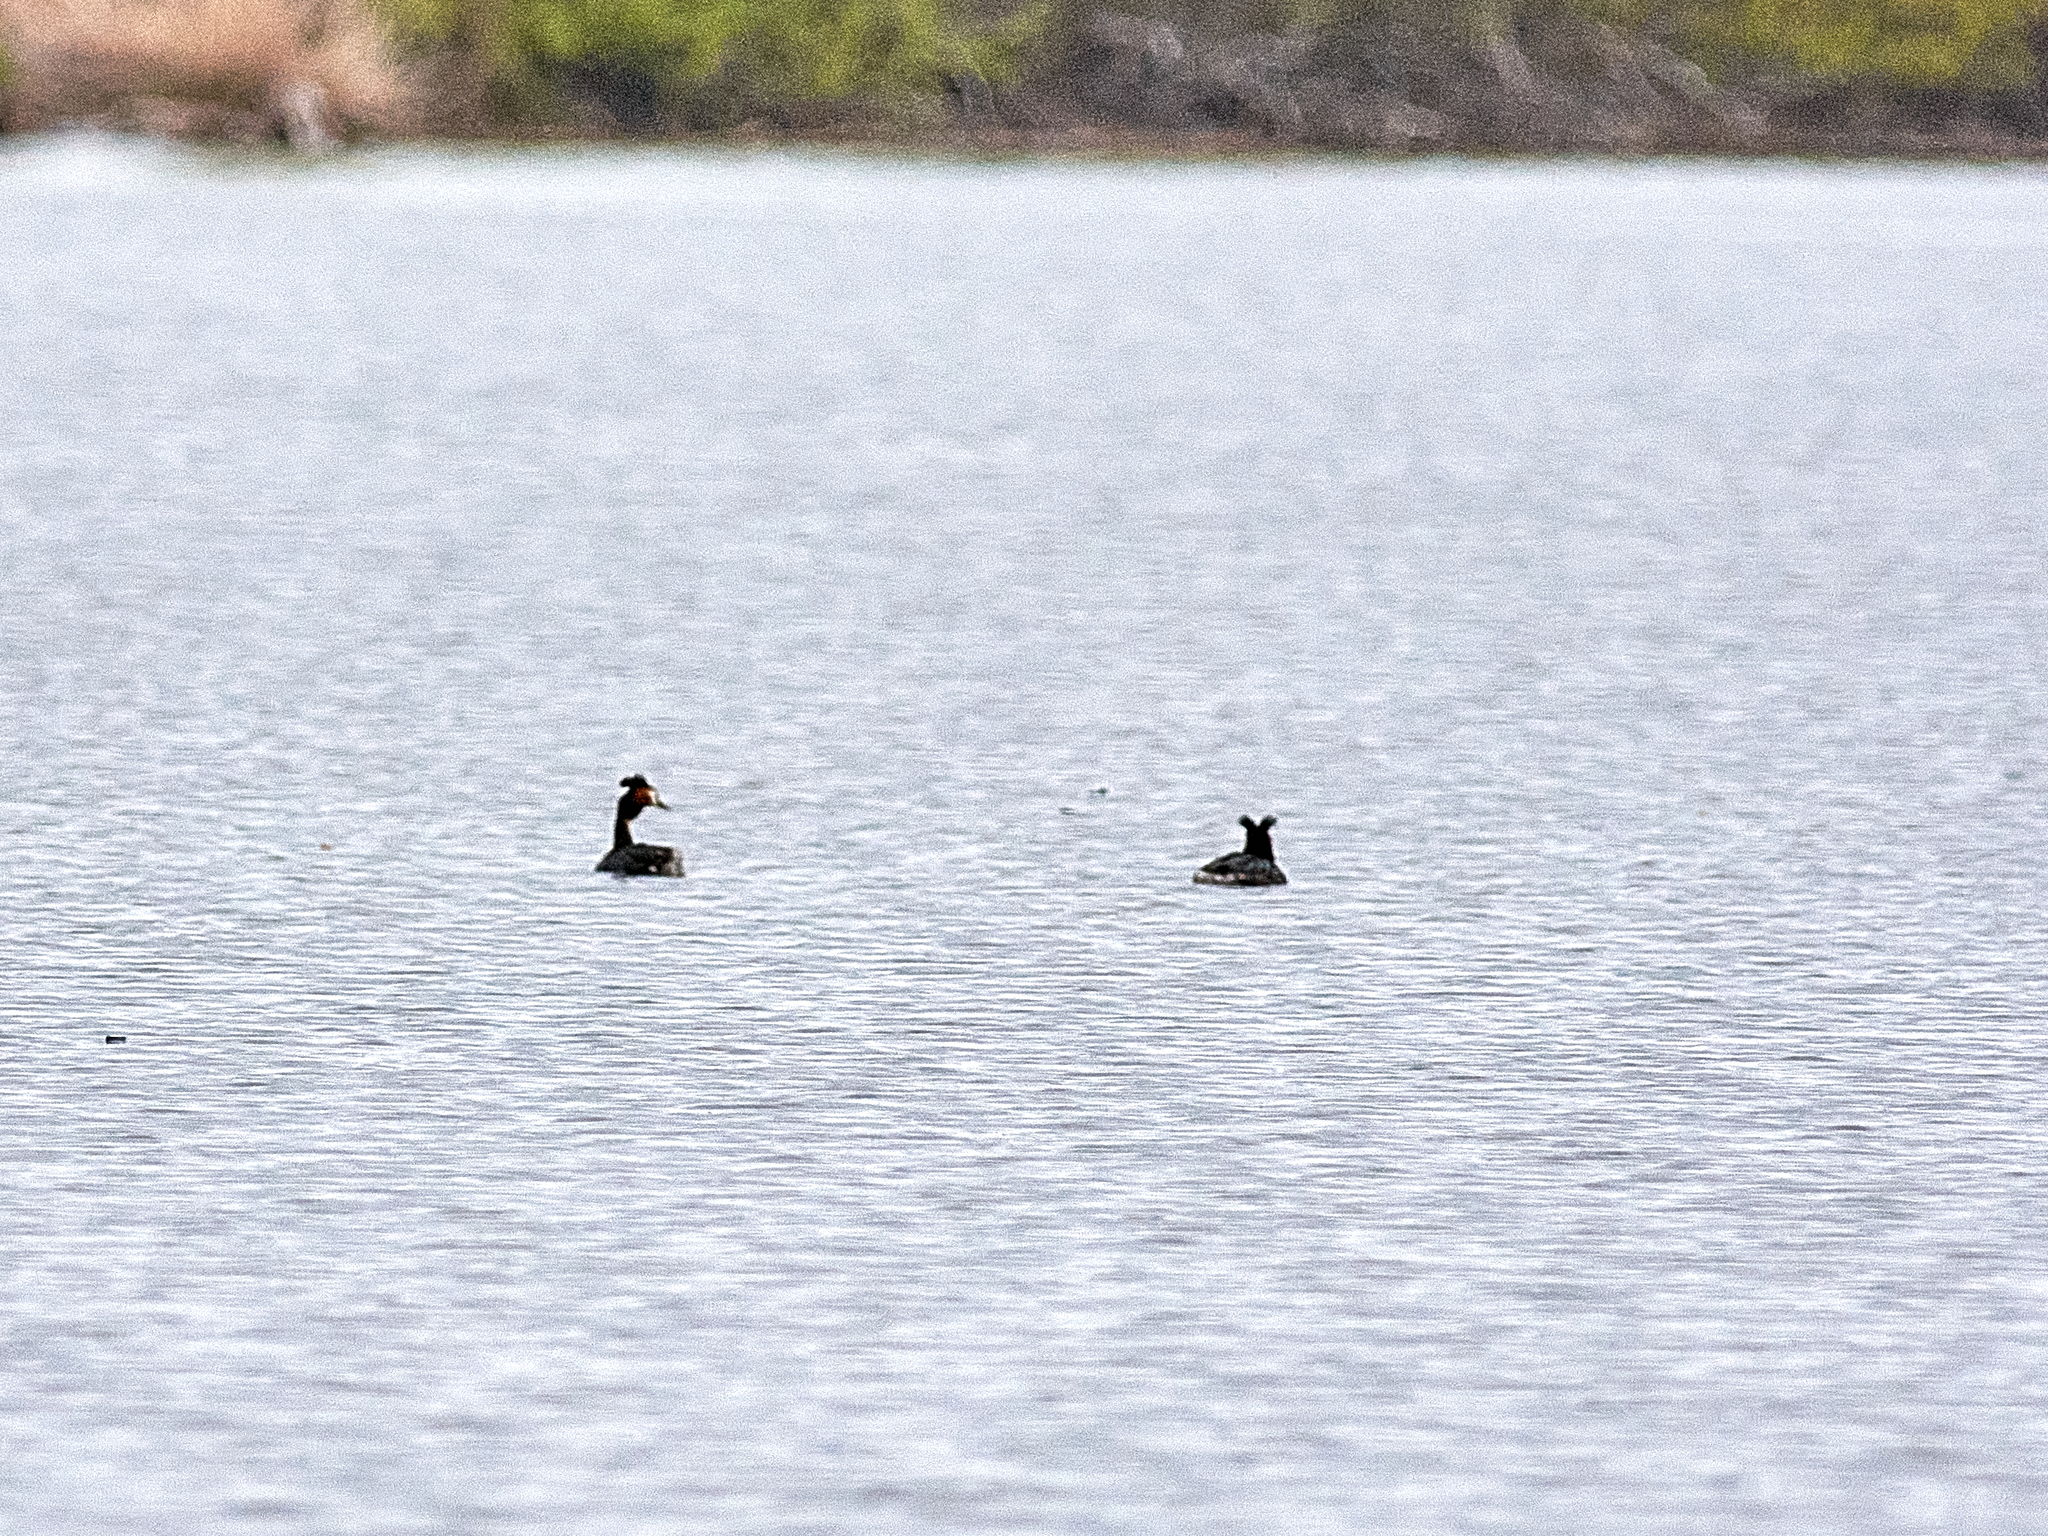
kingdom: Animalia
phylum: Chordata
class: Aves
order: Podicipediformes
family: Podicipedidae
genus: Podiceps
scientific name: Podiceps cristatus
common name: Great crested grebe
